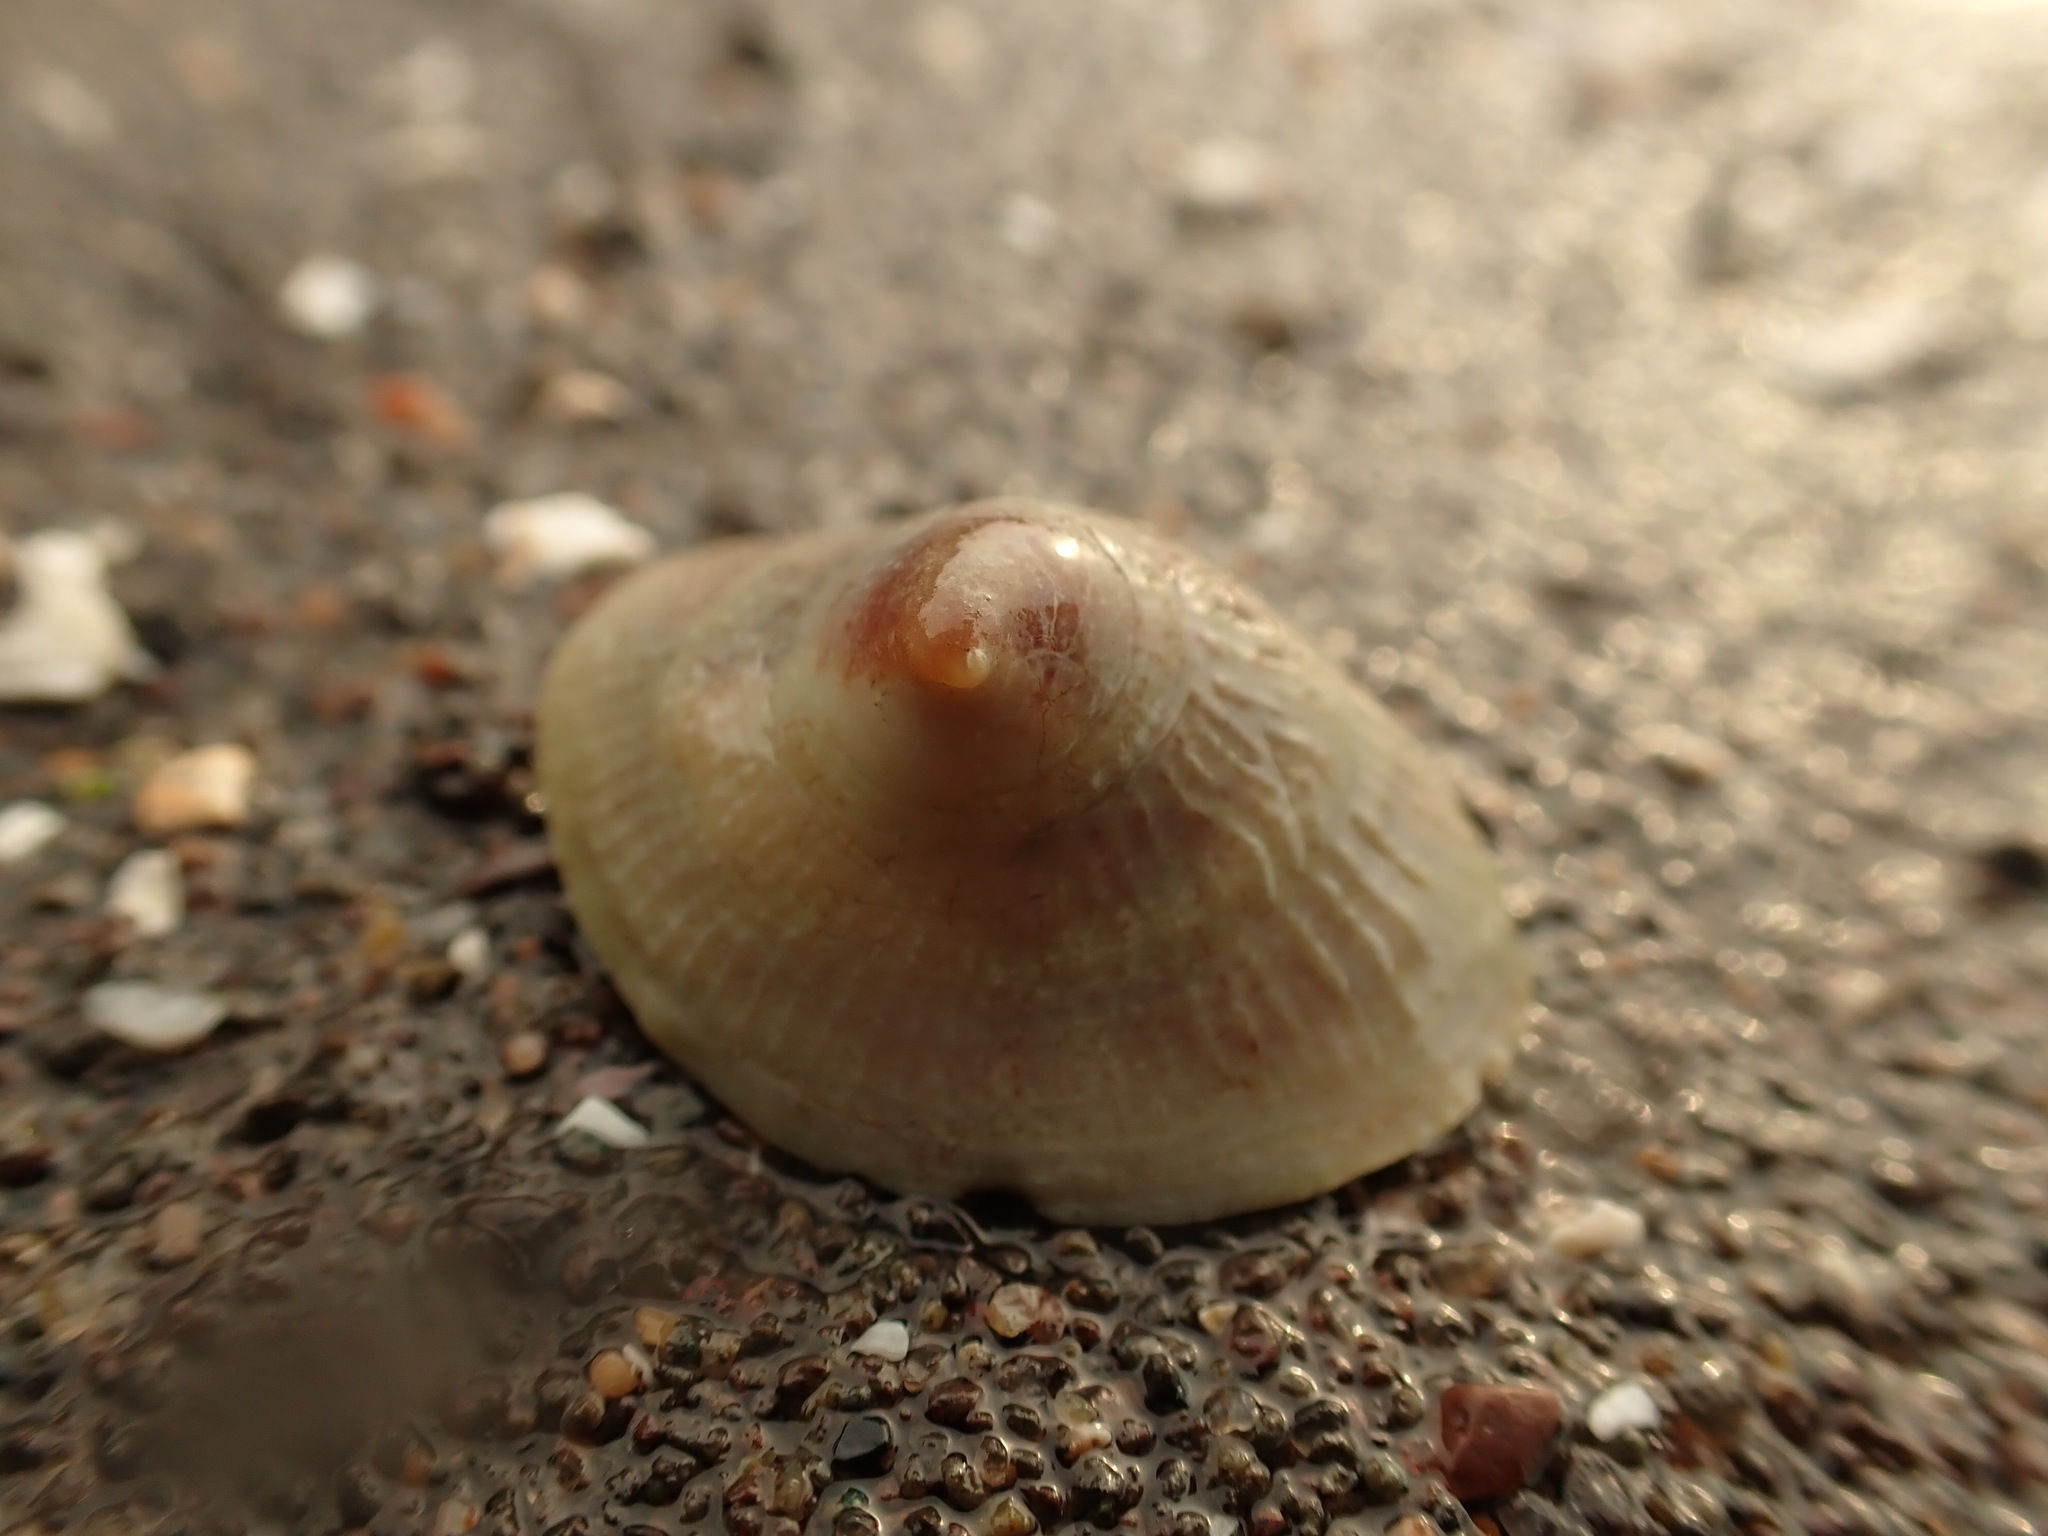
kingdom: Animalia
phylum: Mollusca
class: Gastropoda
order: Littorinimorpha
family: Calyptraeidae
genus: Crucibulum
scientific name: Crucibulum striatum
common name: Striate cup-and -saucer
